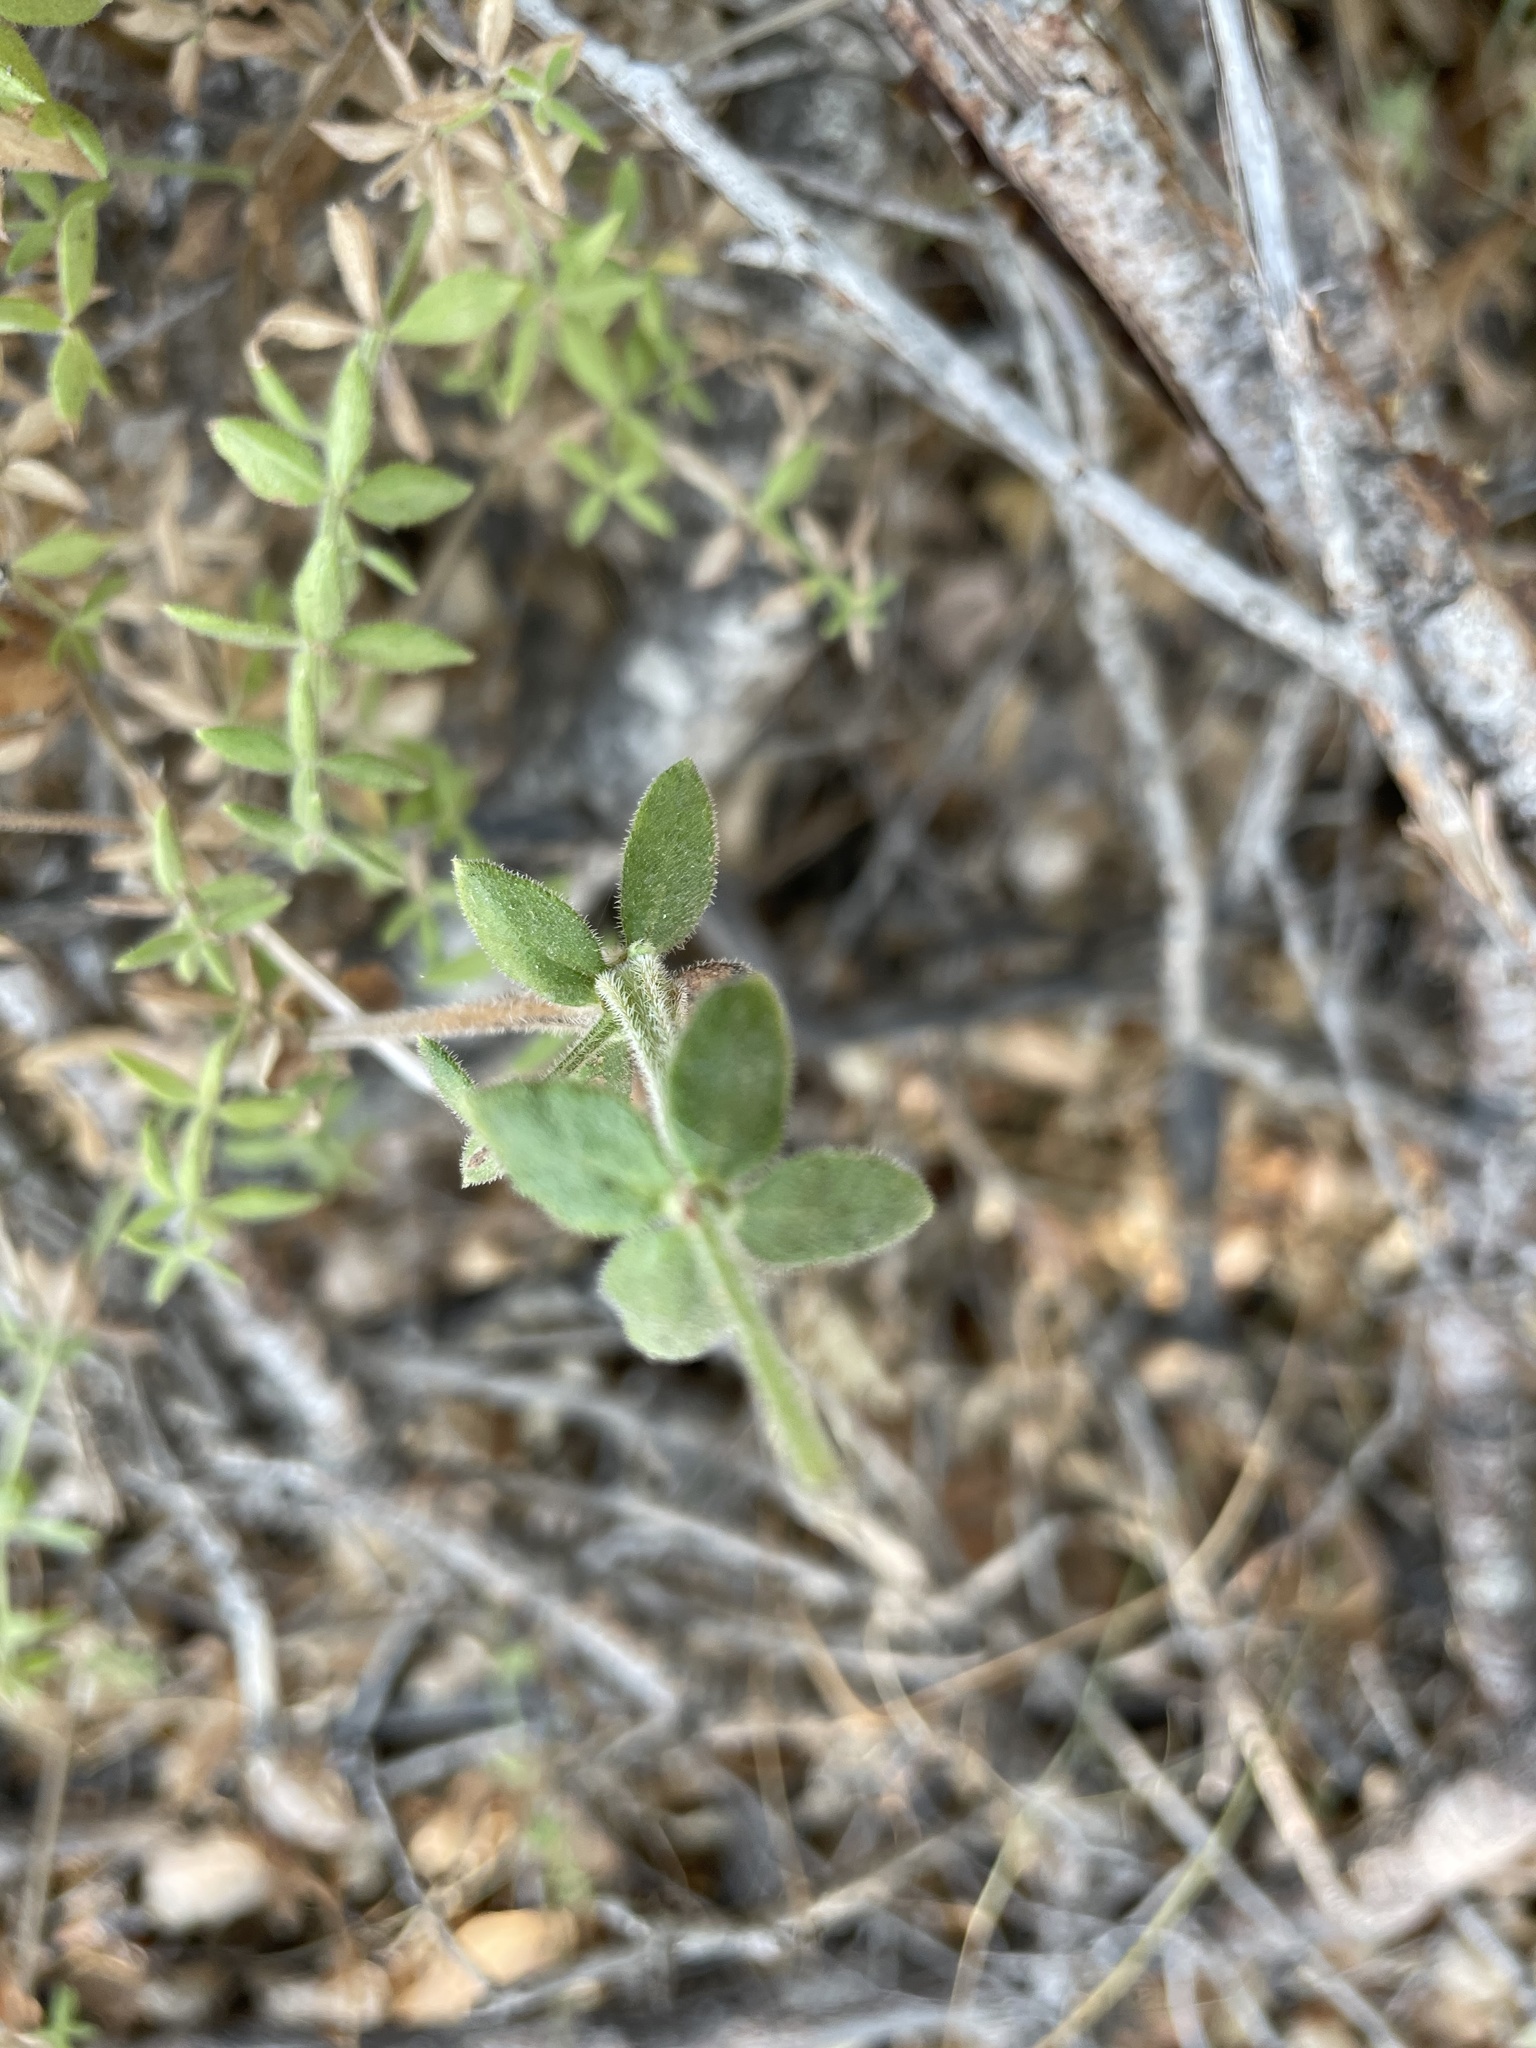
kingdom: Plantae
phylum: Tracheophyta
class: Magnoliopsida
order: Gentianales
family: Rubiaceae
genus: Galium
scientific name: Galium martirense
